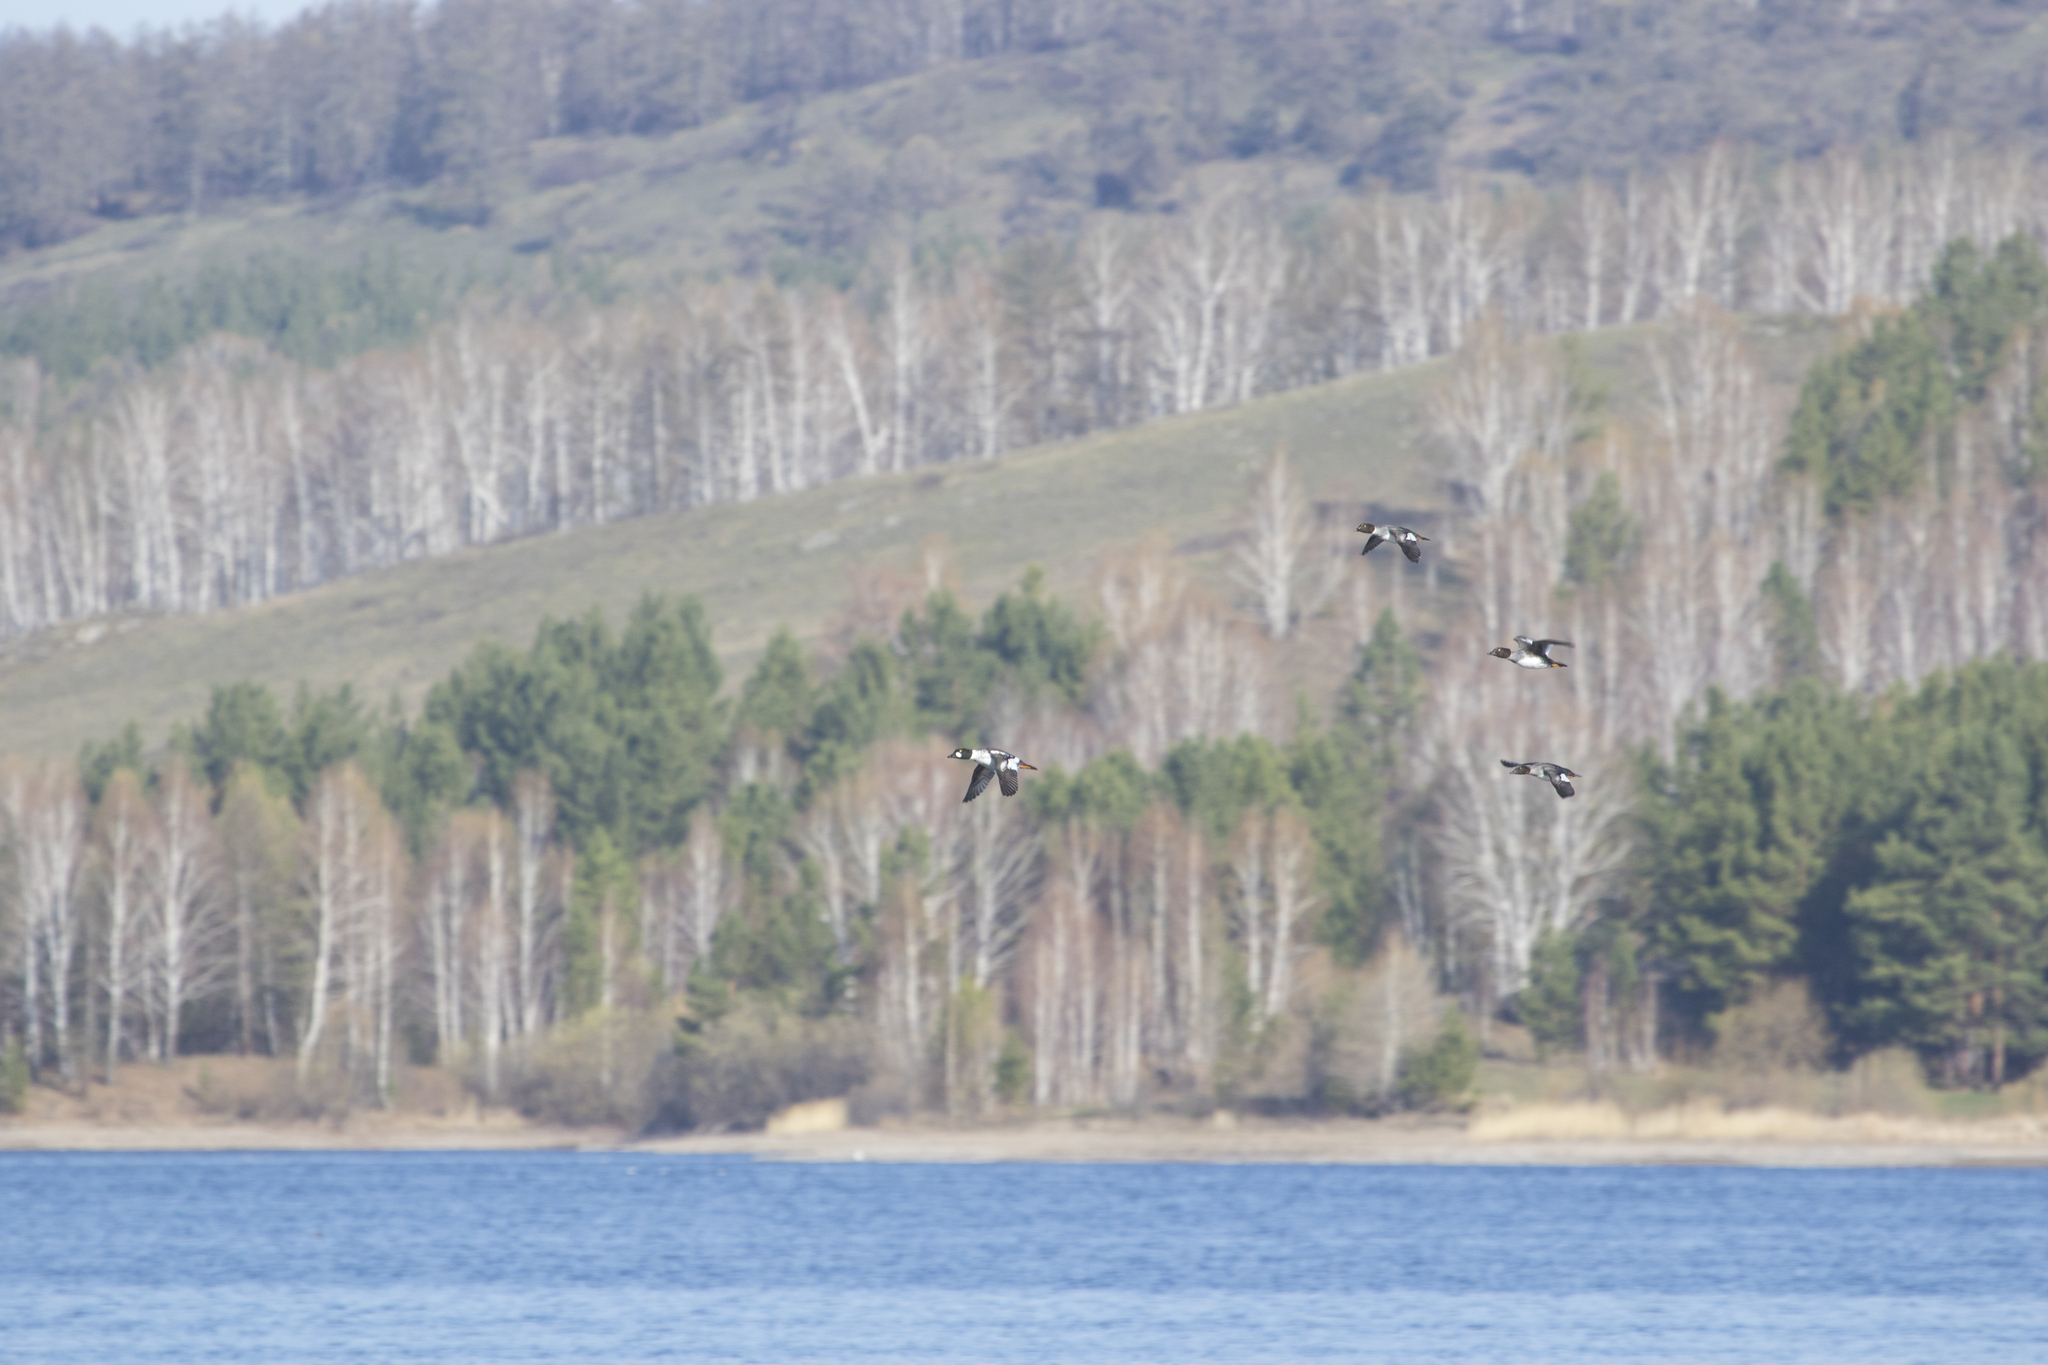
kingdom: Animalia
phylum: Chordata
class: Aves
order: Anseriformes
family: Anatidae
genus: Bucephala
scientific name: Bucephala clangula
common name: Common goldeneye
